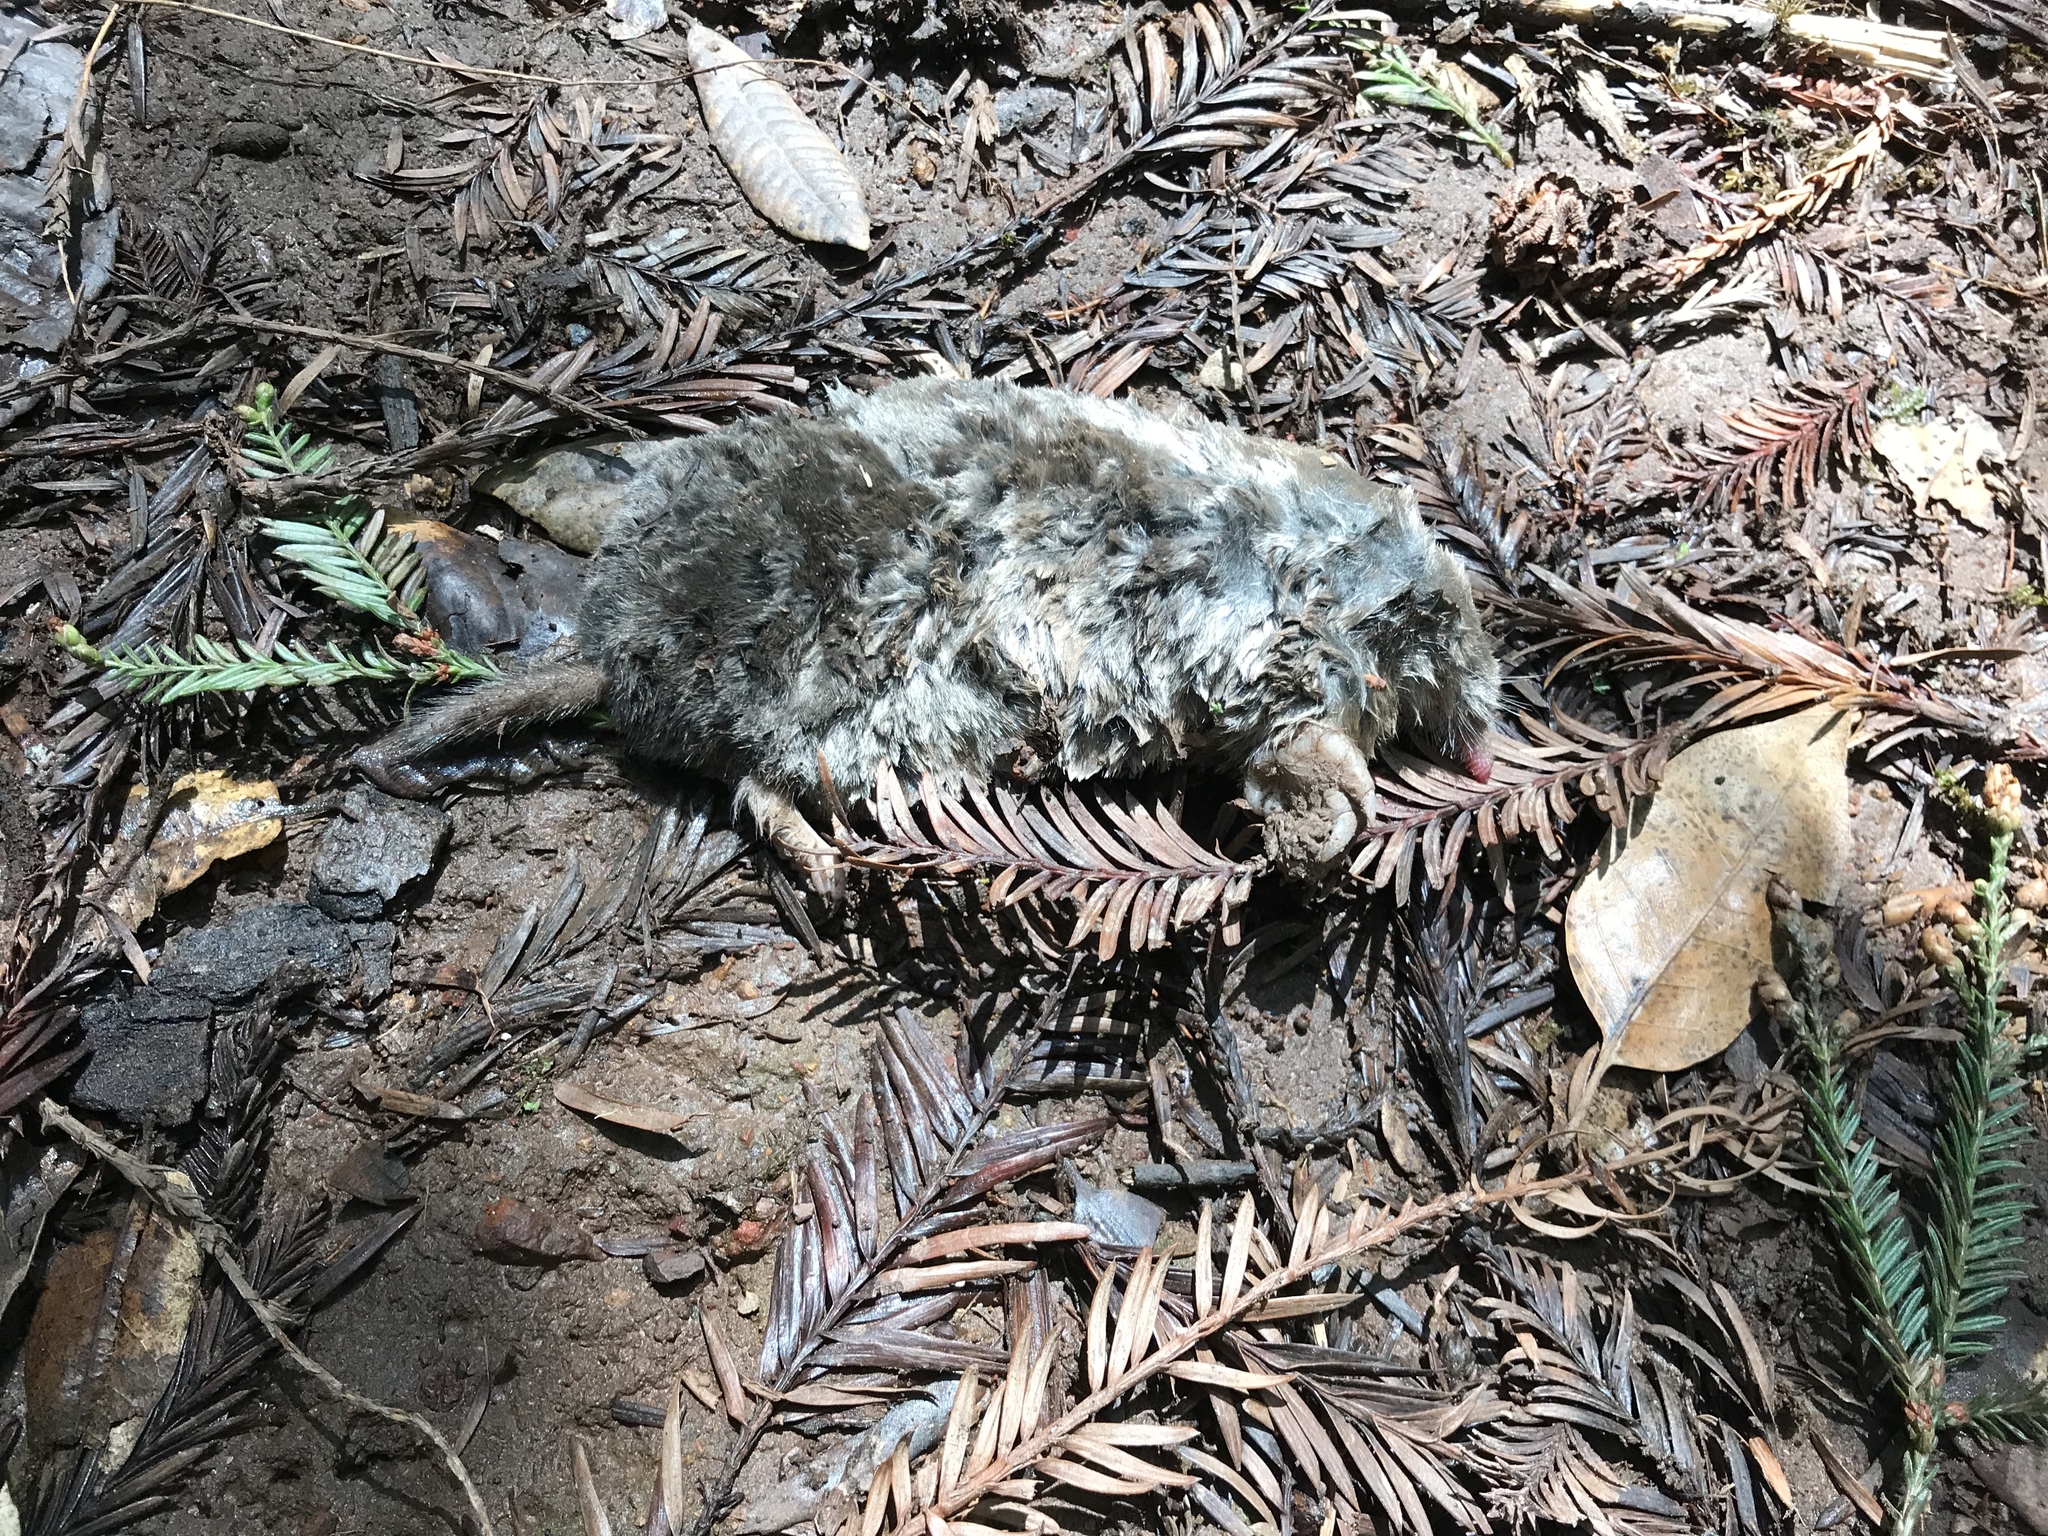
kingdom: Animalia
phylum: Chordata
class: Mammalia
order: Soricomorpha
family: Talpidae
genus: Scapanus
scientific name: Scapanus latimanus
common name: Broad-footed mole
